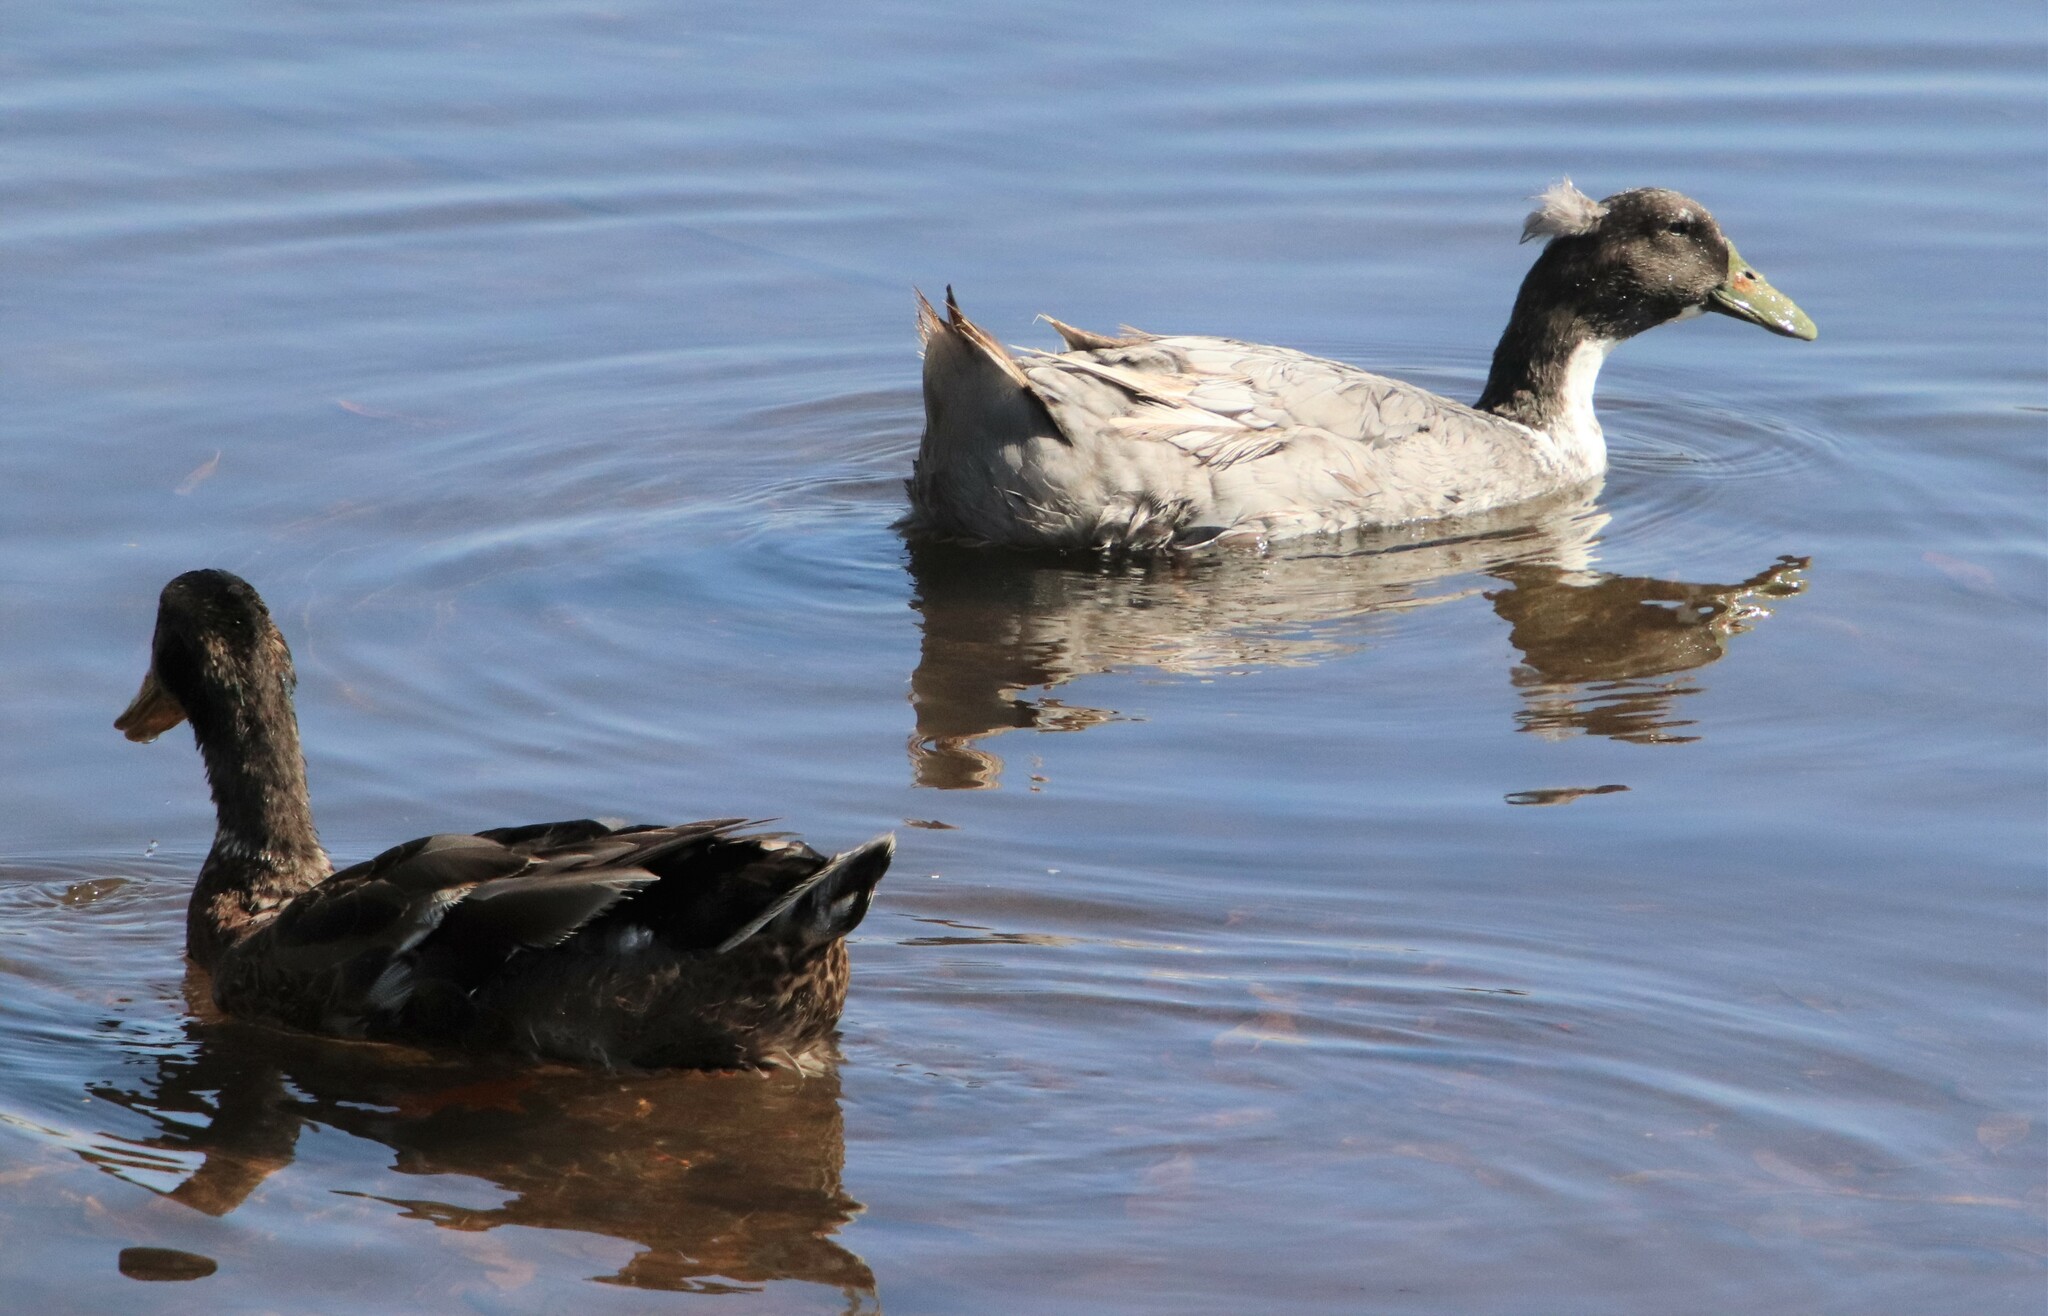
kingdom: Animalia
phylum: Chordata
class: Aves
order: Anseriformes
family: Anatidae
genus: Anas
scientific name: Anas platyrhynchos
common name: Mallard
